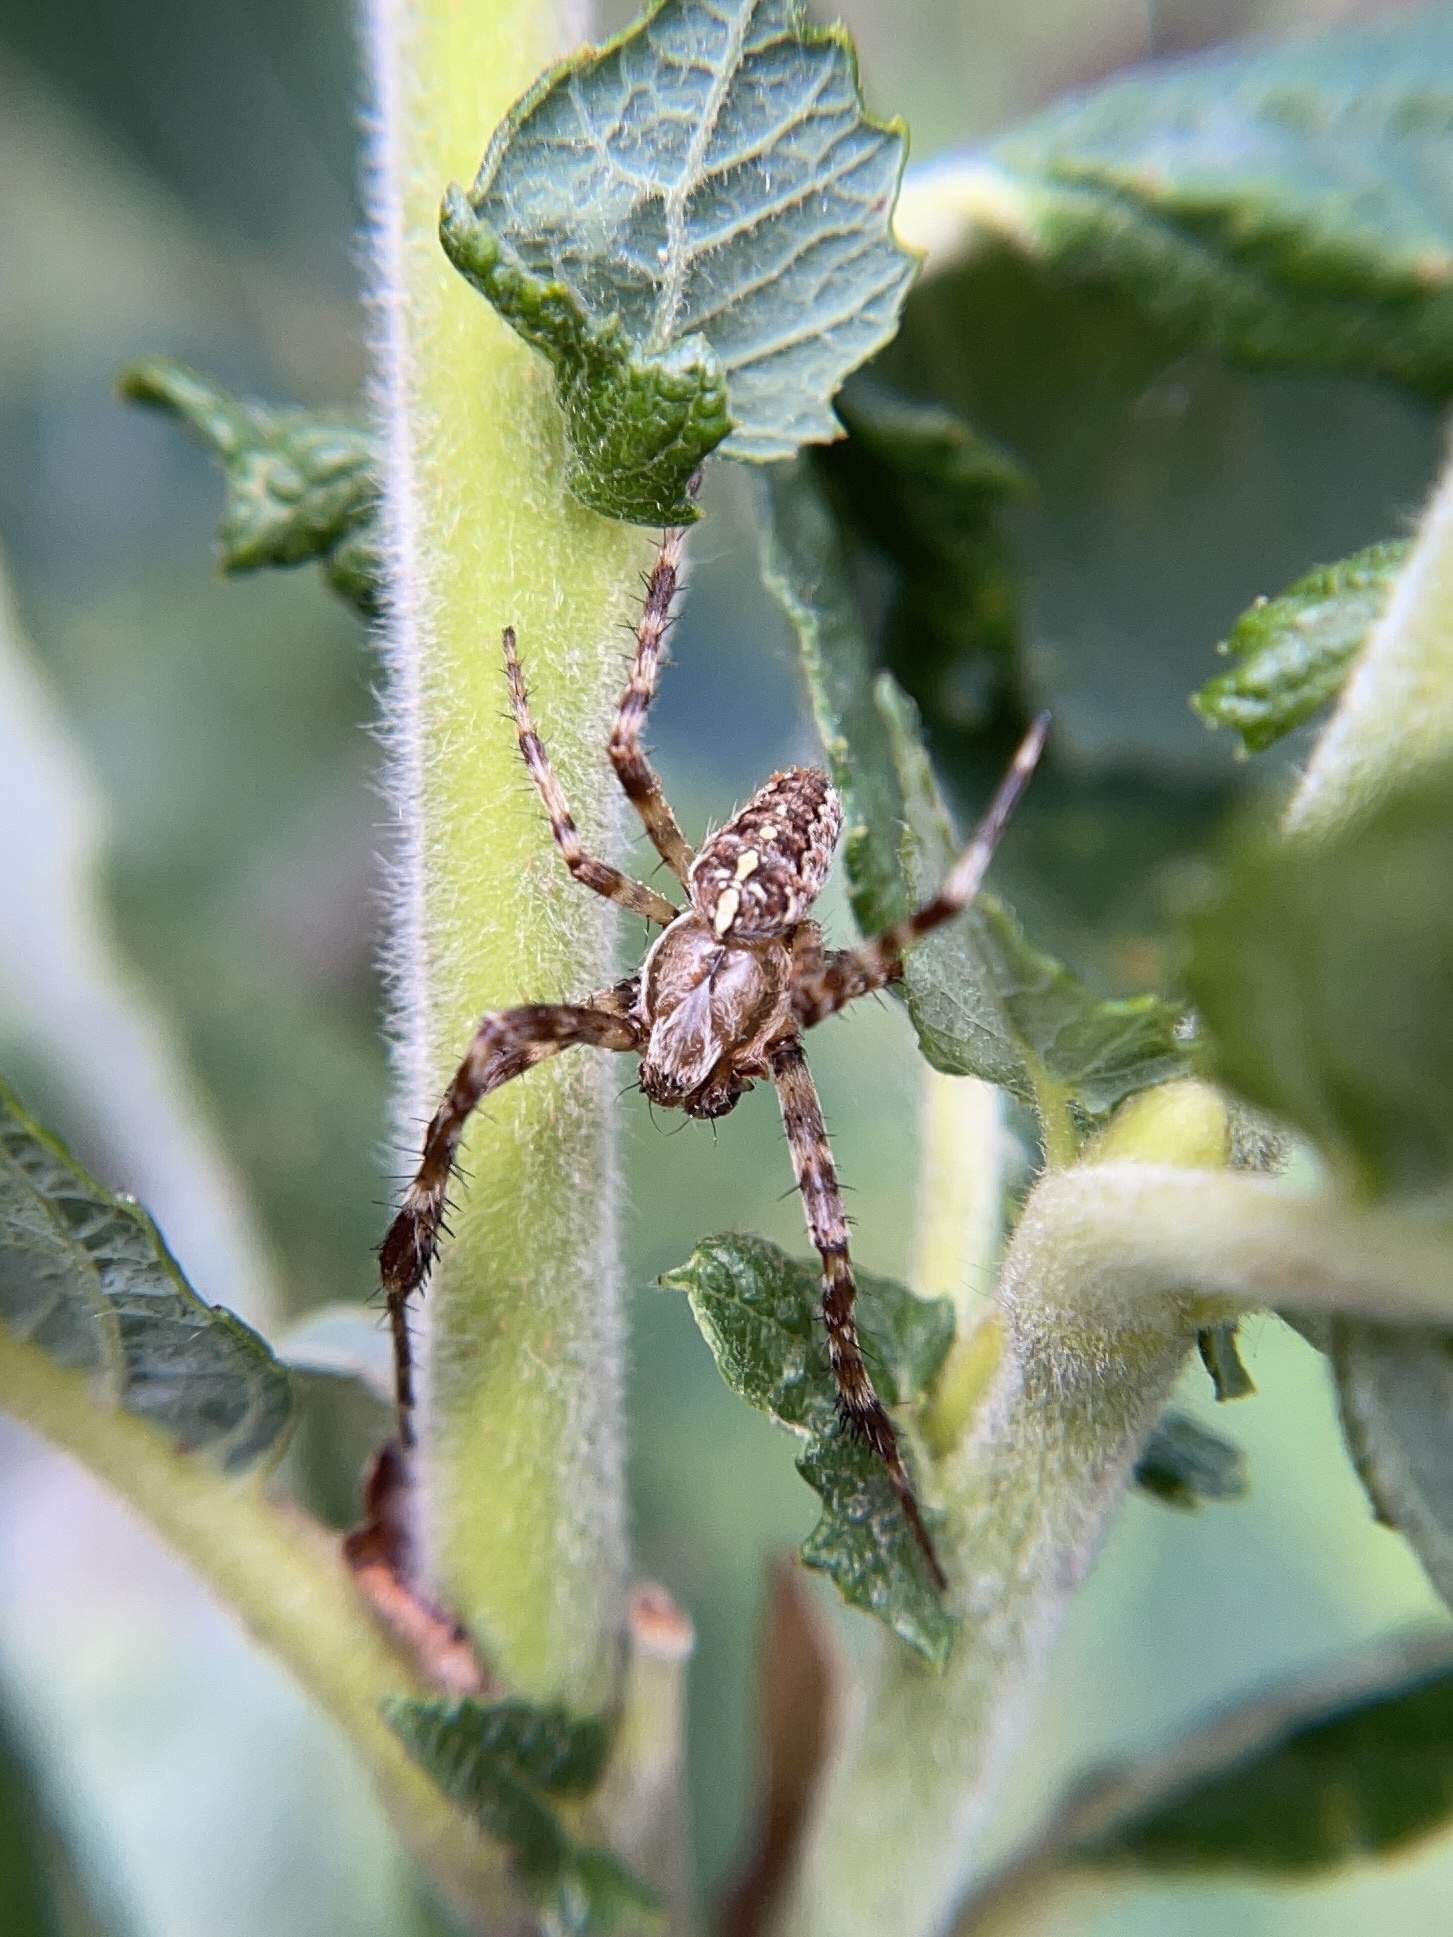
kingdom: Animalia
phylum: Arthropoda
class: Arachnida
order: Araneae
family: Araneidae
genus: Araneus
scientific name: Araneus diadematus
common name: Cross orbweaver
